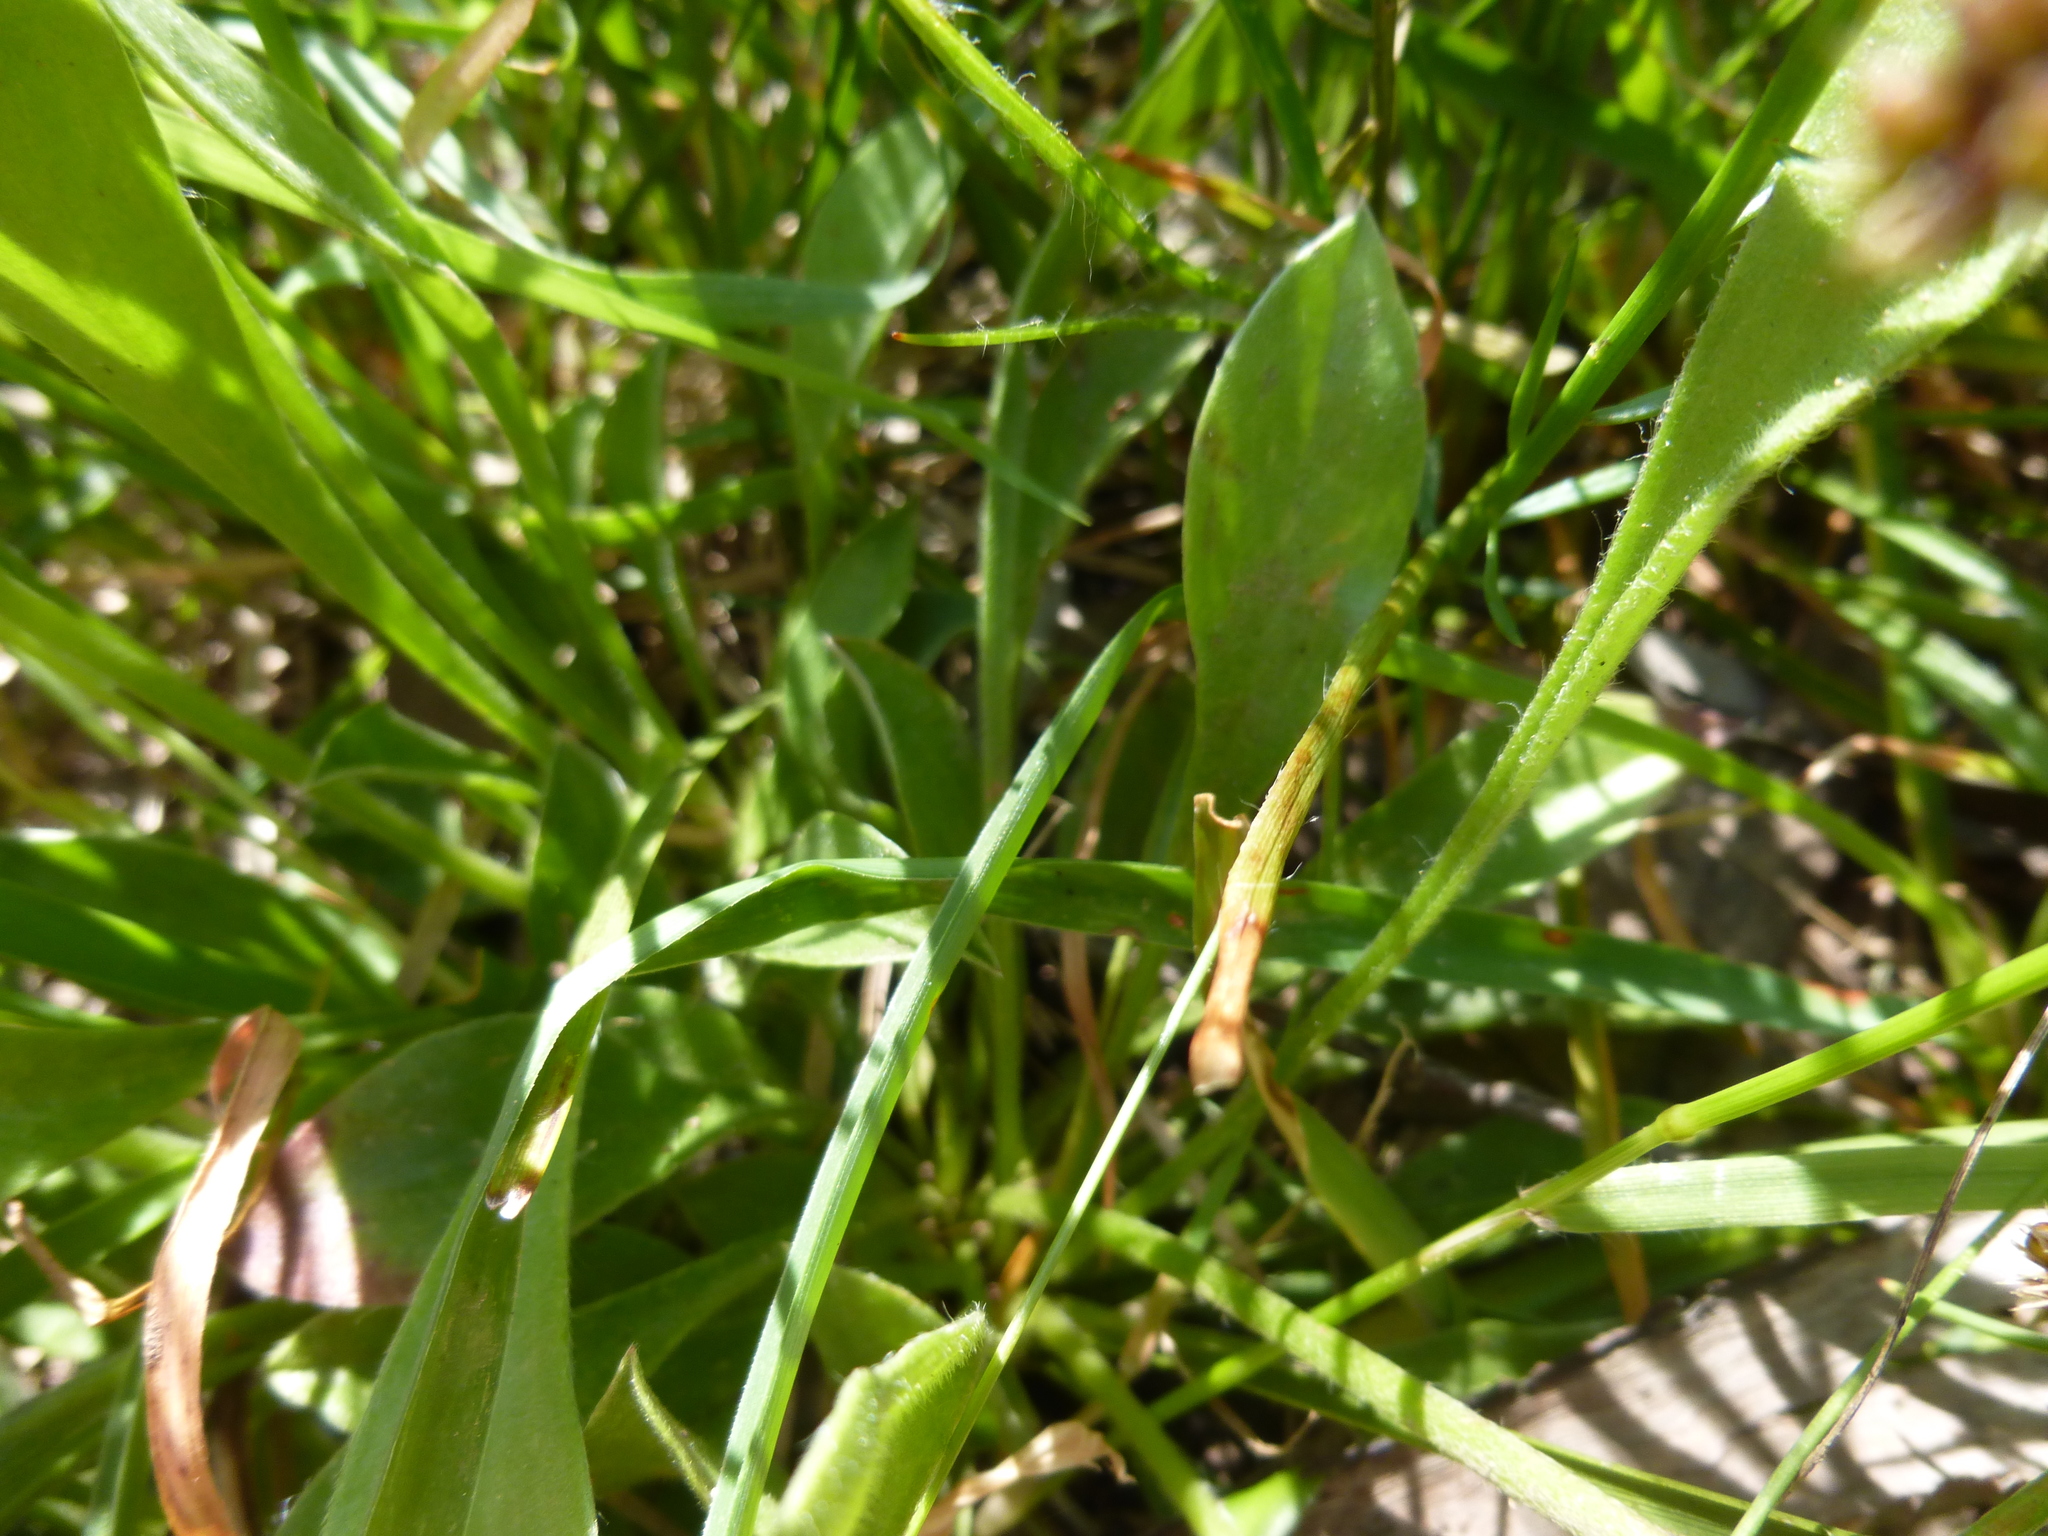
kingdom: Plantae
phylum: Tracheophyta
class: Magnoliopsida
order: Asterales
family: Goodeniaceae
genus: Brunonia
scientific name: Brunonia australis
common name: Blue pincushion
